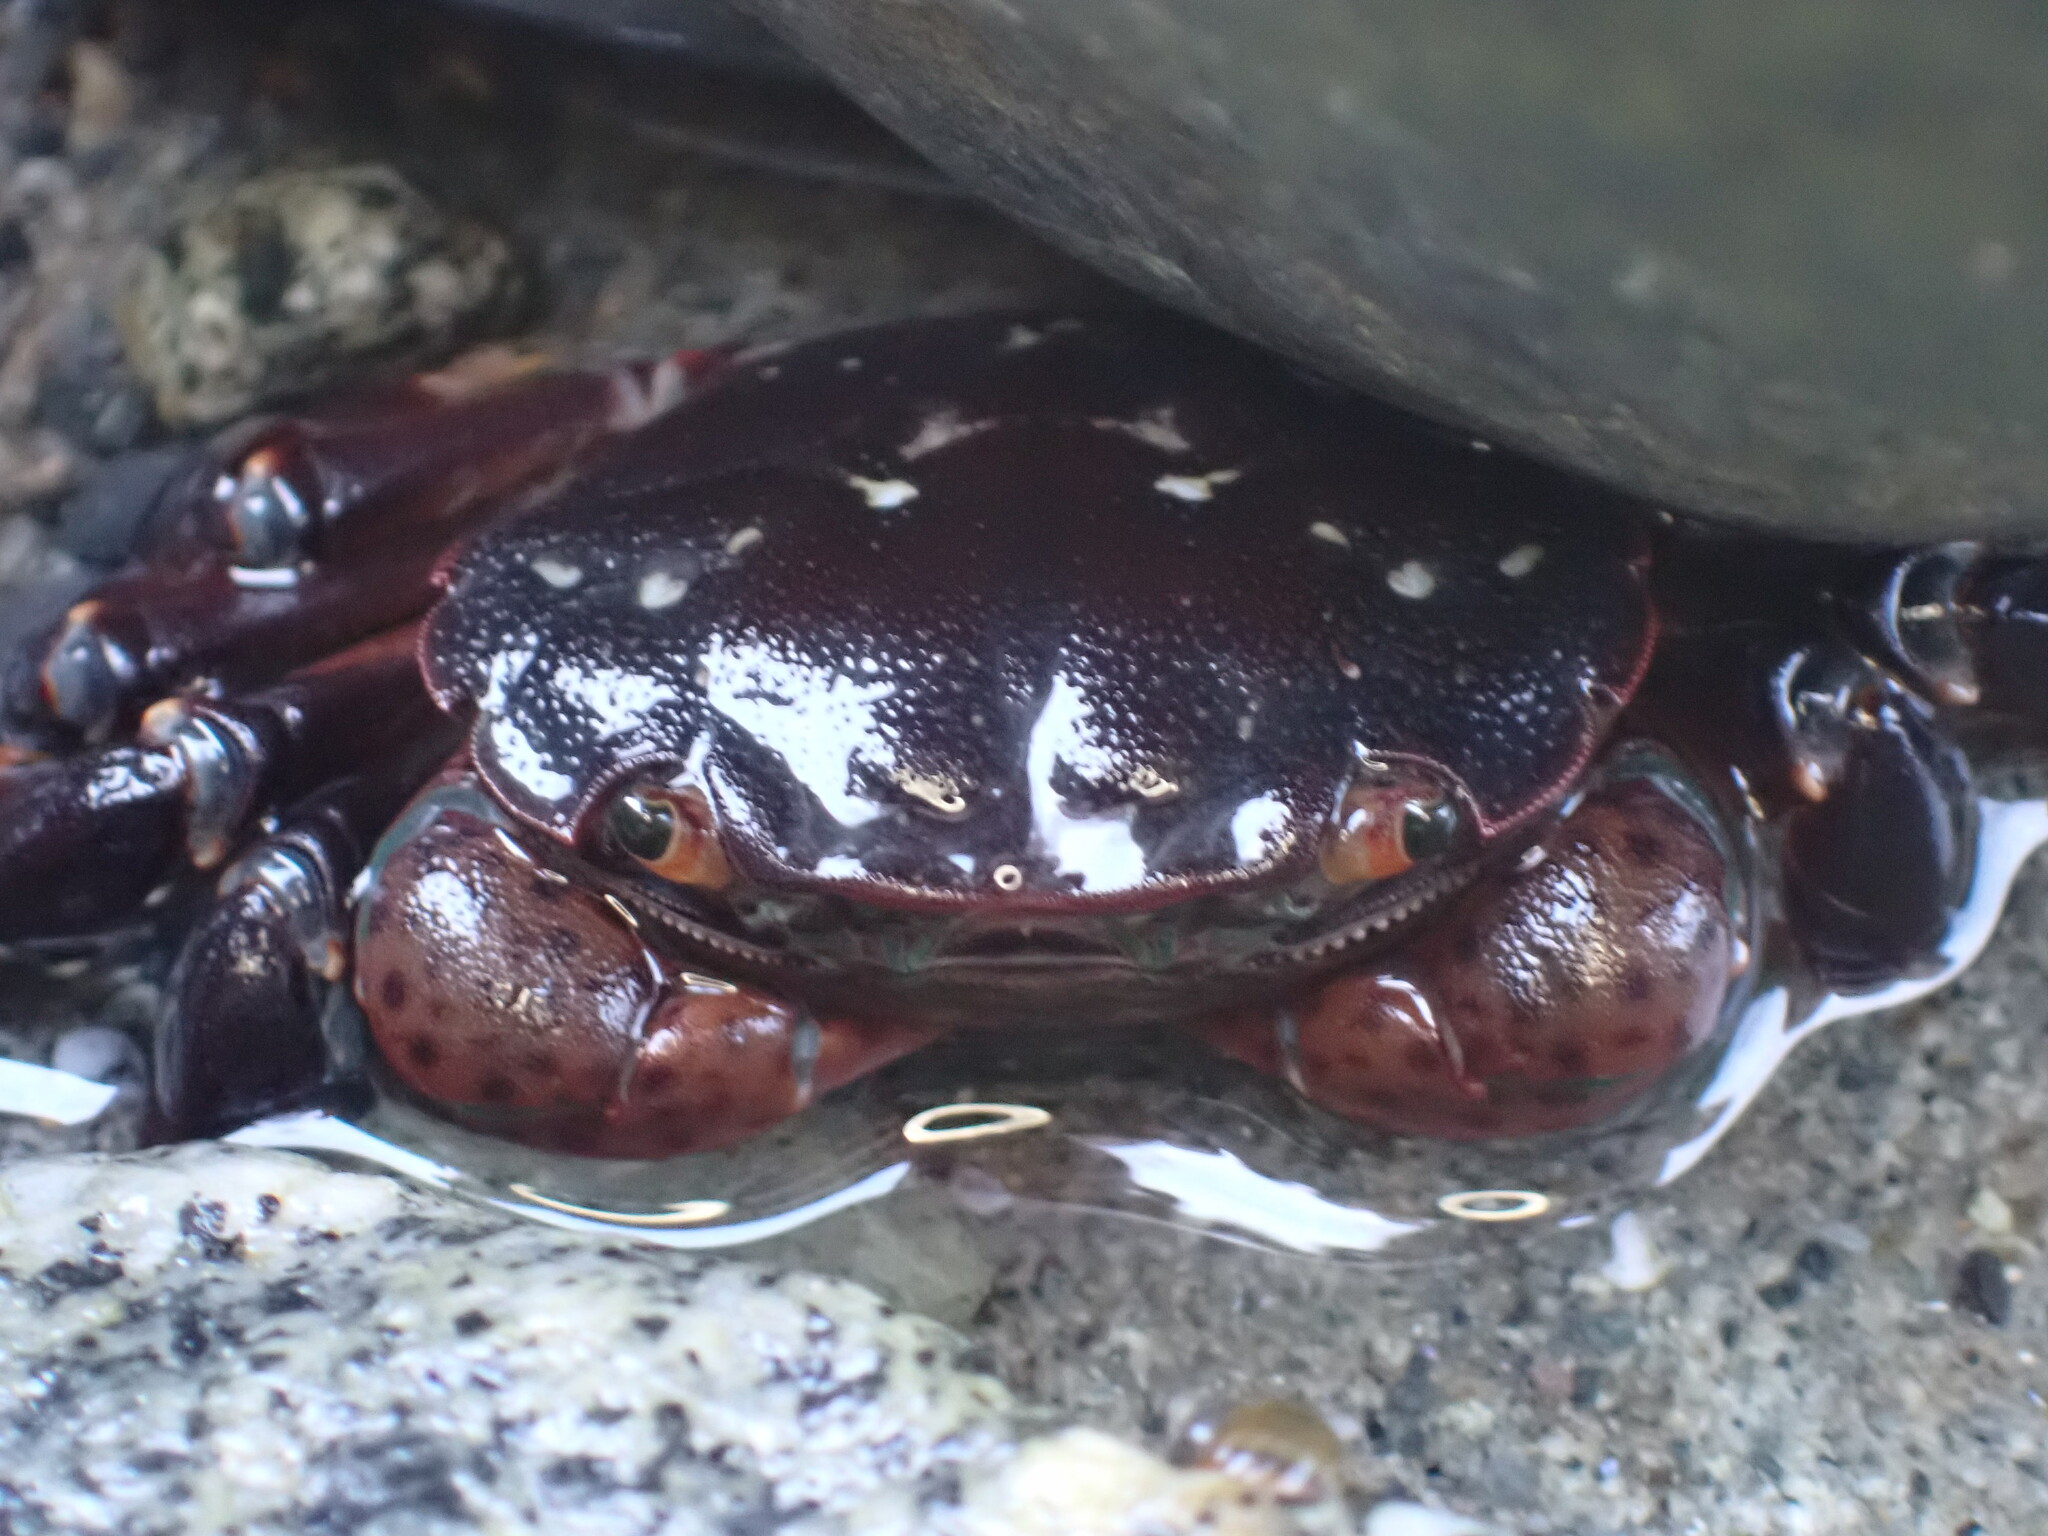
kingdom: Animalia
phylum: Arthropoda
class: Malacostraca
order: Decapoda
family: Varunidae
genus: Hemigrapsus
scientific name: Hemigrapsus nudus
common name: Purple shore crab
